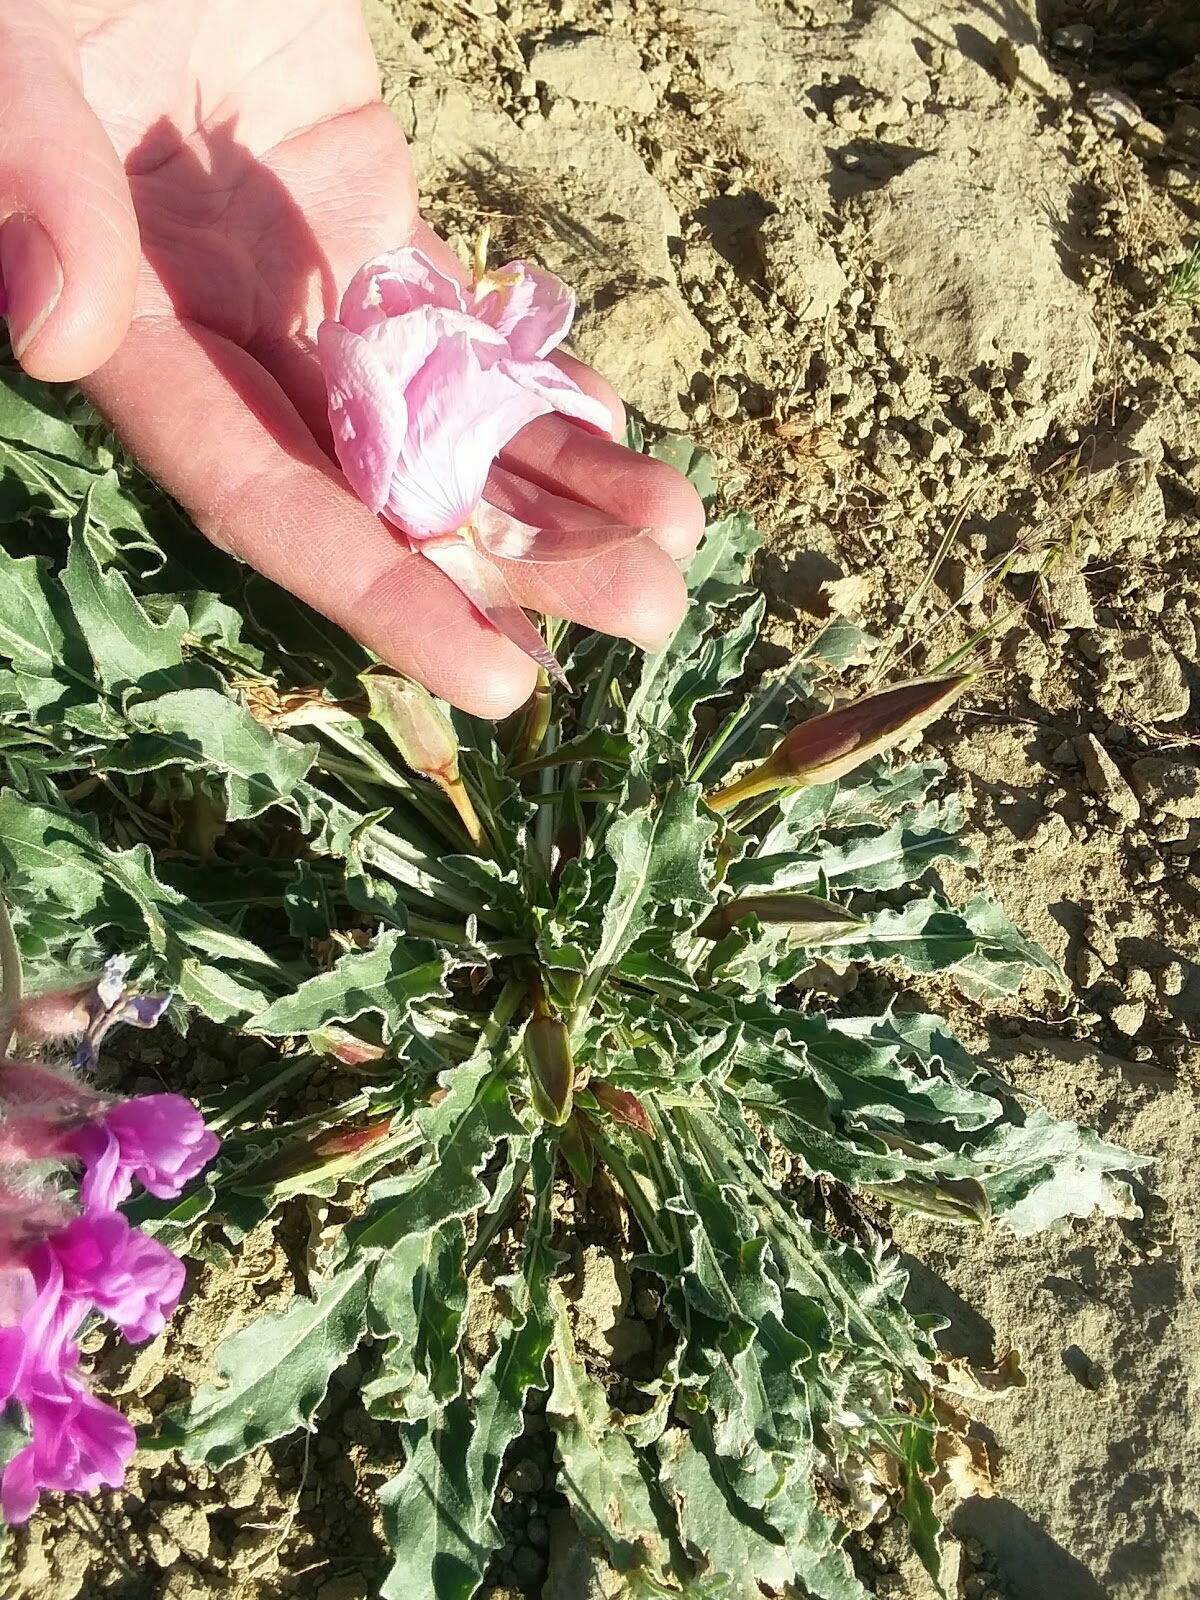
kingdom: Plantae
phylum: Tracheophyta
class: Magnoliopsida
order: Myrtales
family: Onagraceae
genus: Oenothera
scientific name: Oenothera cespitosa
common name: Tufted evening-primrose
